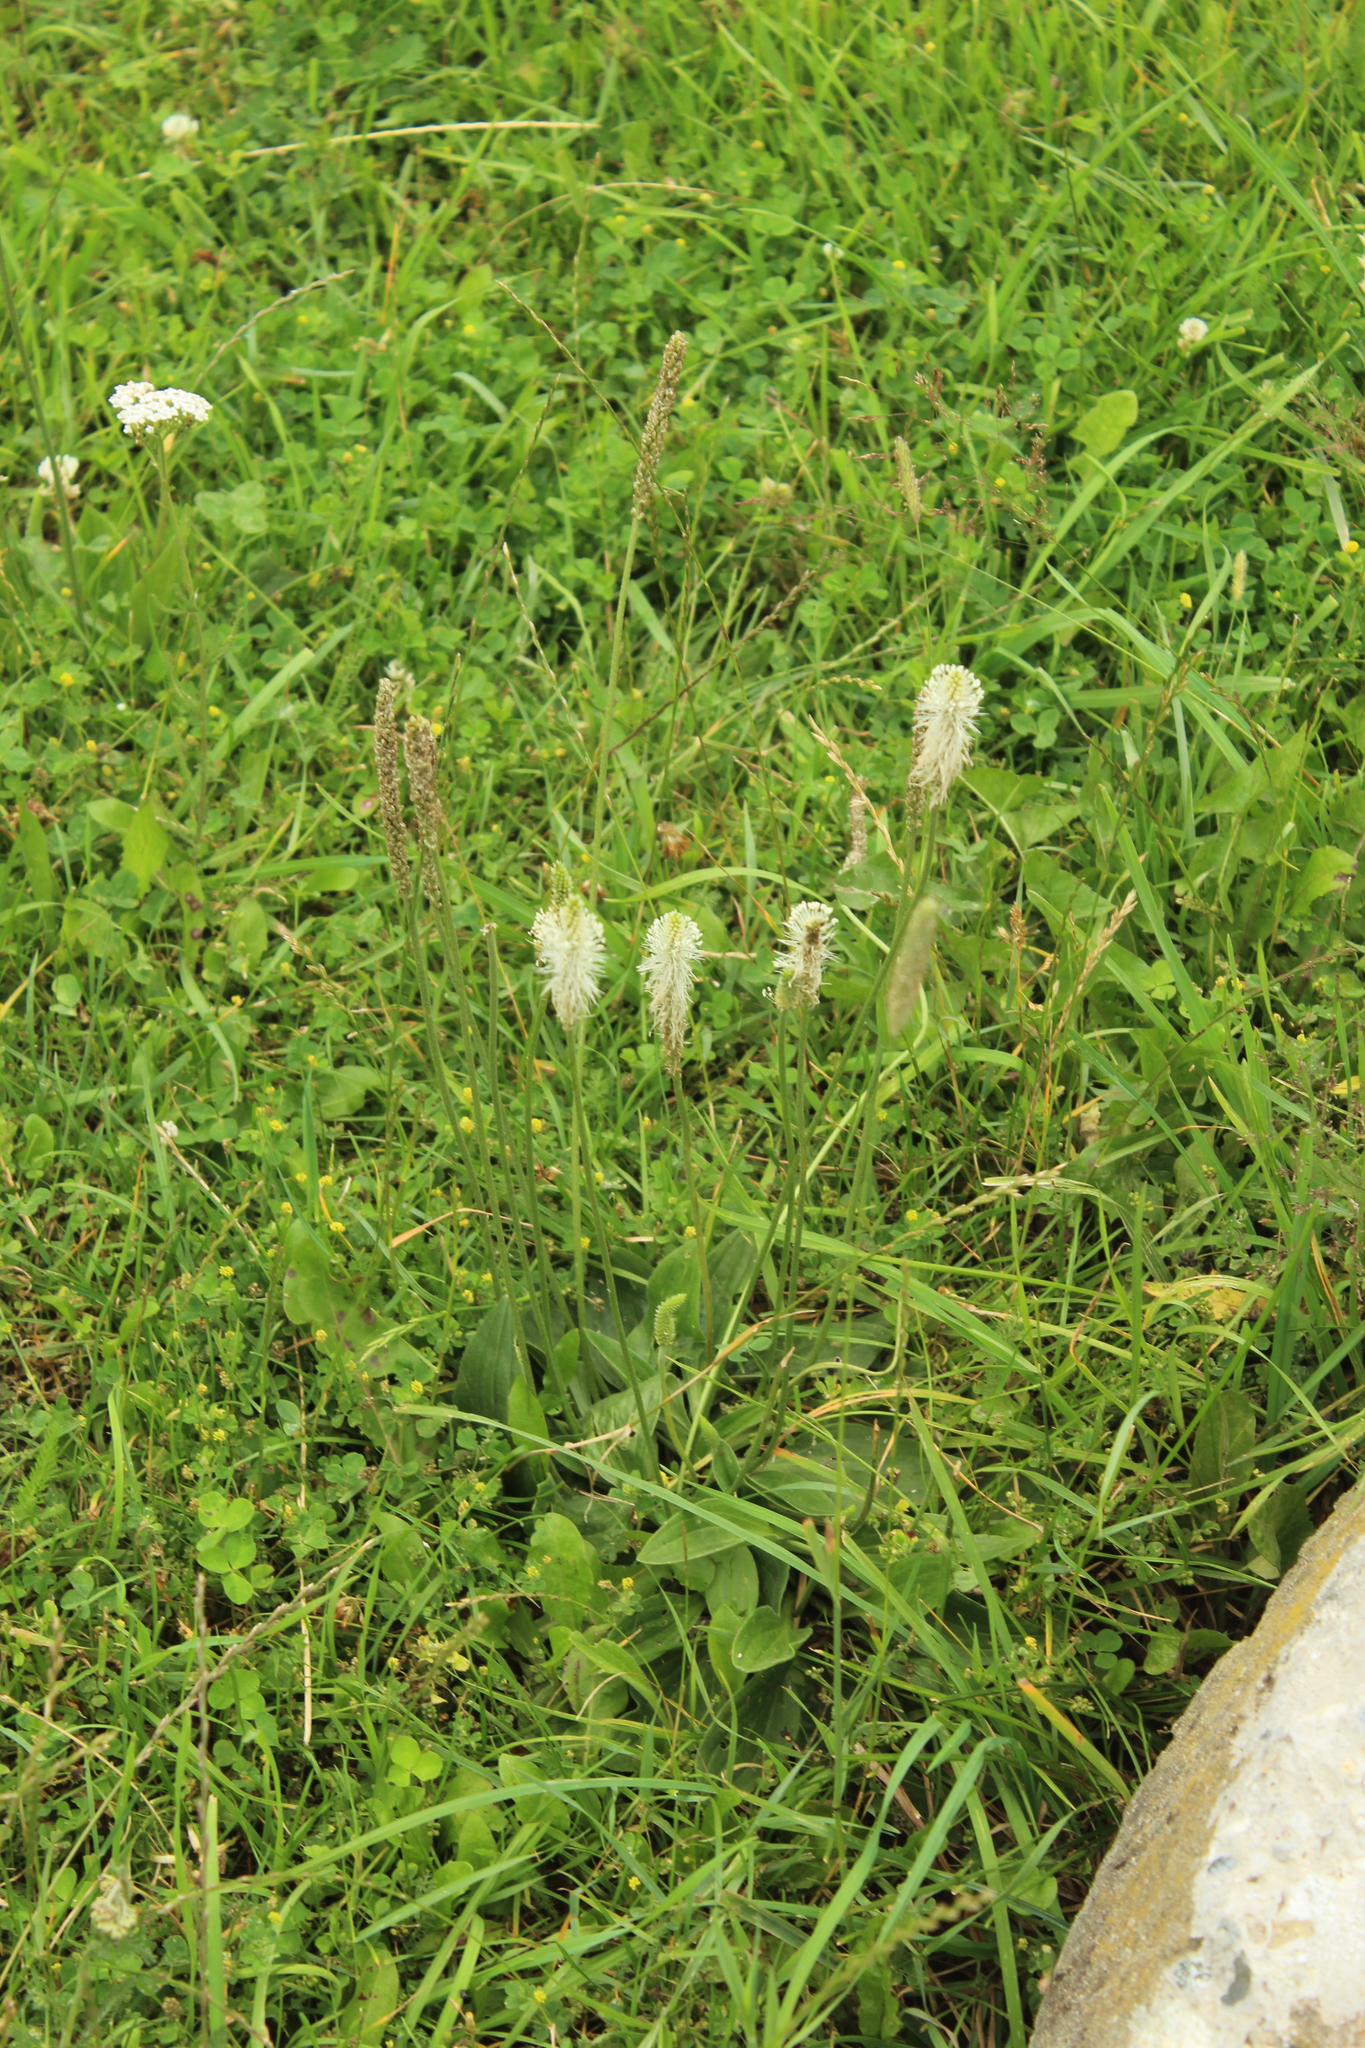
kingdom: Plantae
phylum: Tracheophyta
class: Magnoliopsida
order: Lamiales
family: Plantaginaceae
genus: Plantago
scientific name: Plantago media
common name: Hoary plantain
